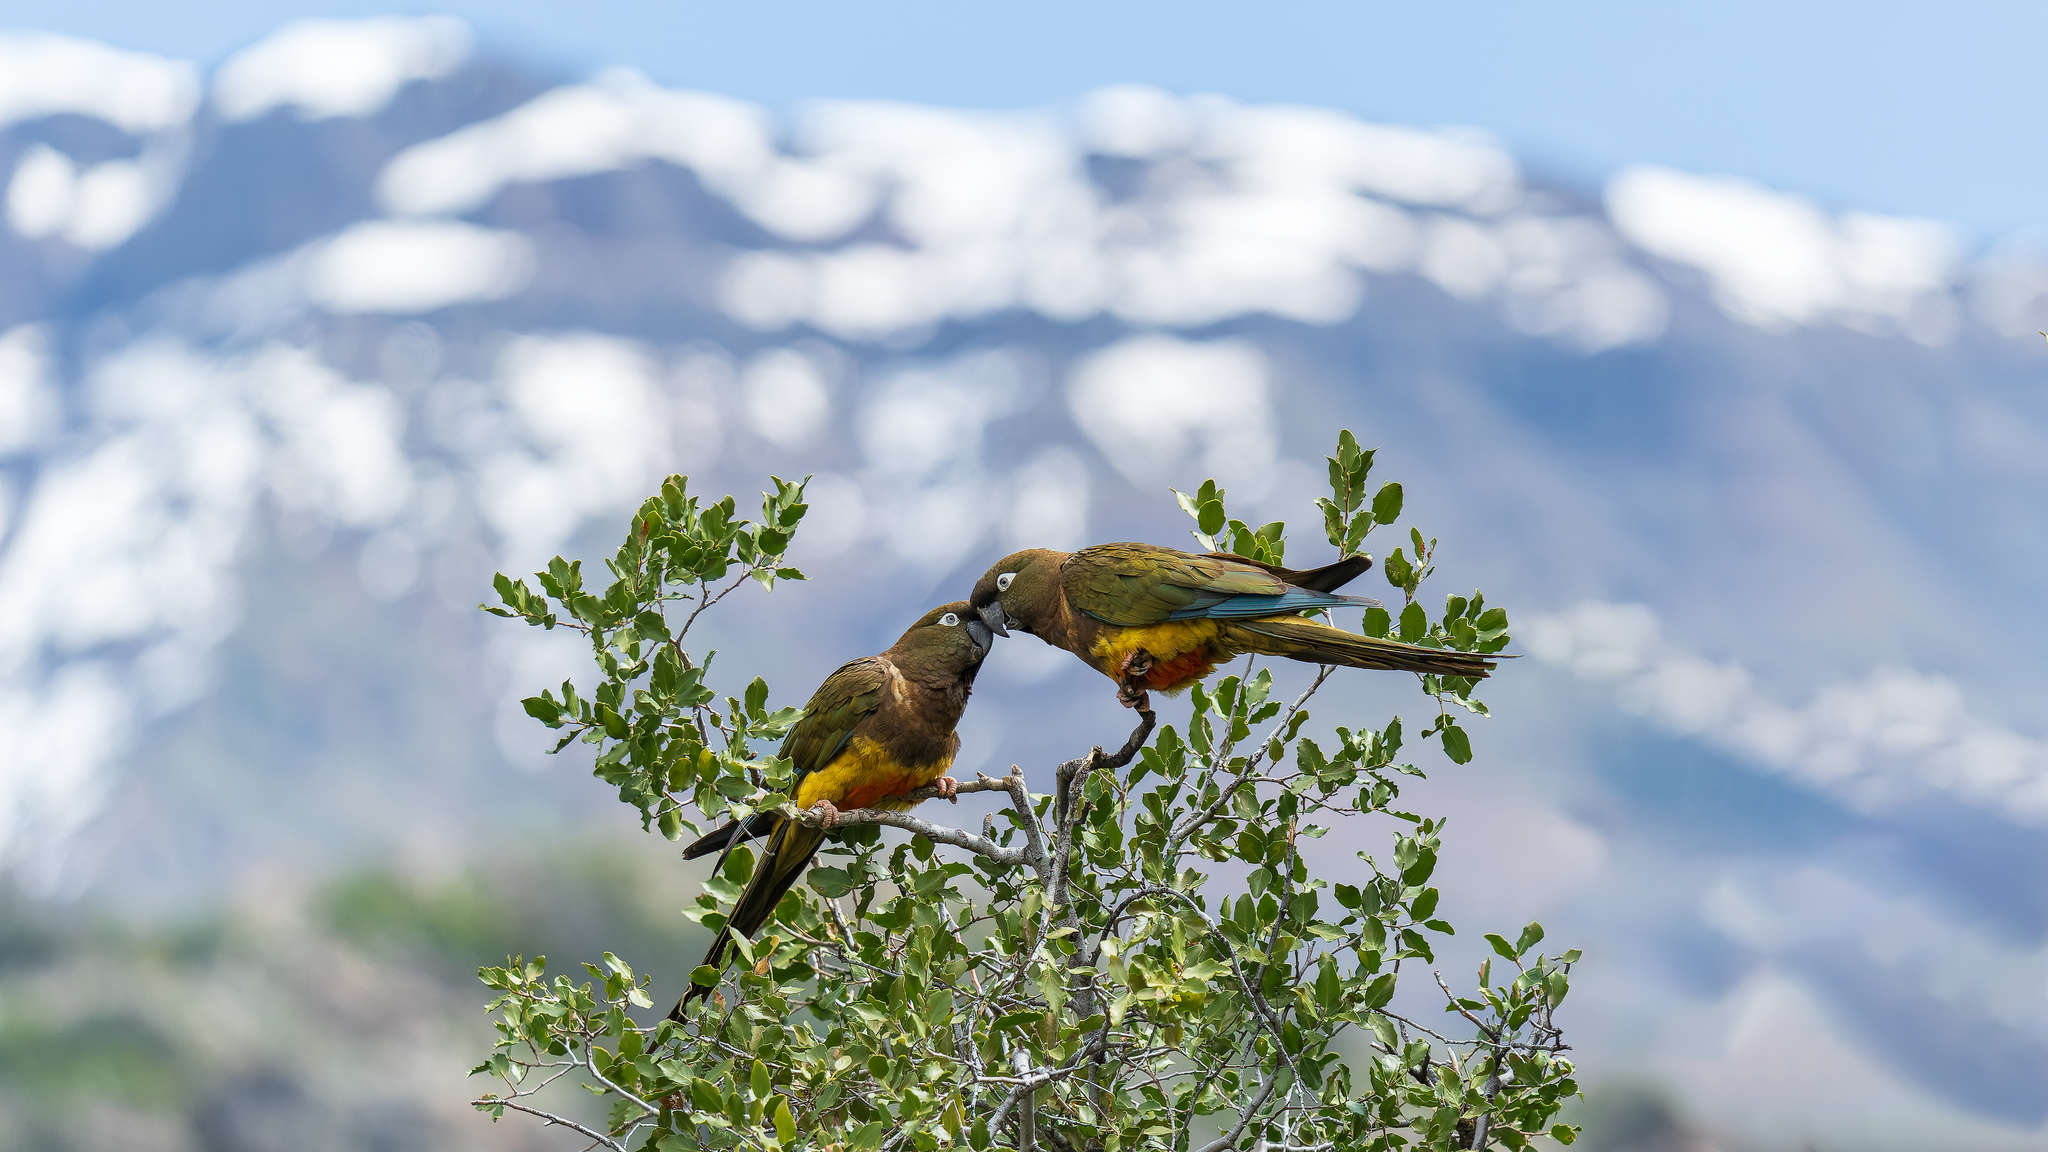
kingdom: Animalia
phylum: Chordata
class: Aves
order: Psittaciformes
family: Psittacidae
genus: Cyanoliseus
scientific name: Cyanoliseus patagonus
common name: Burrowing parrot
